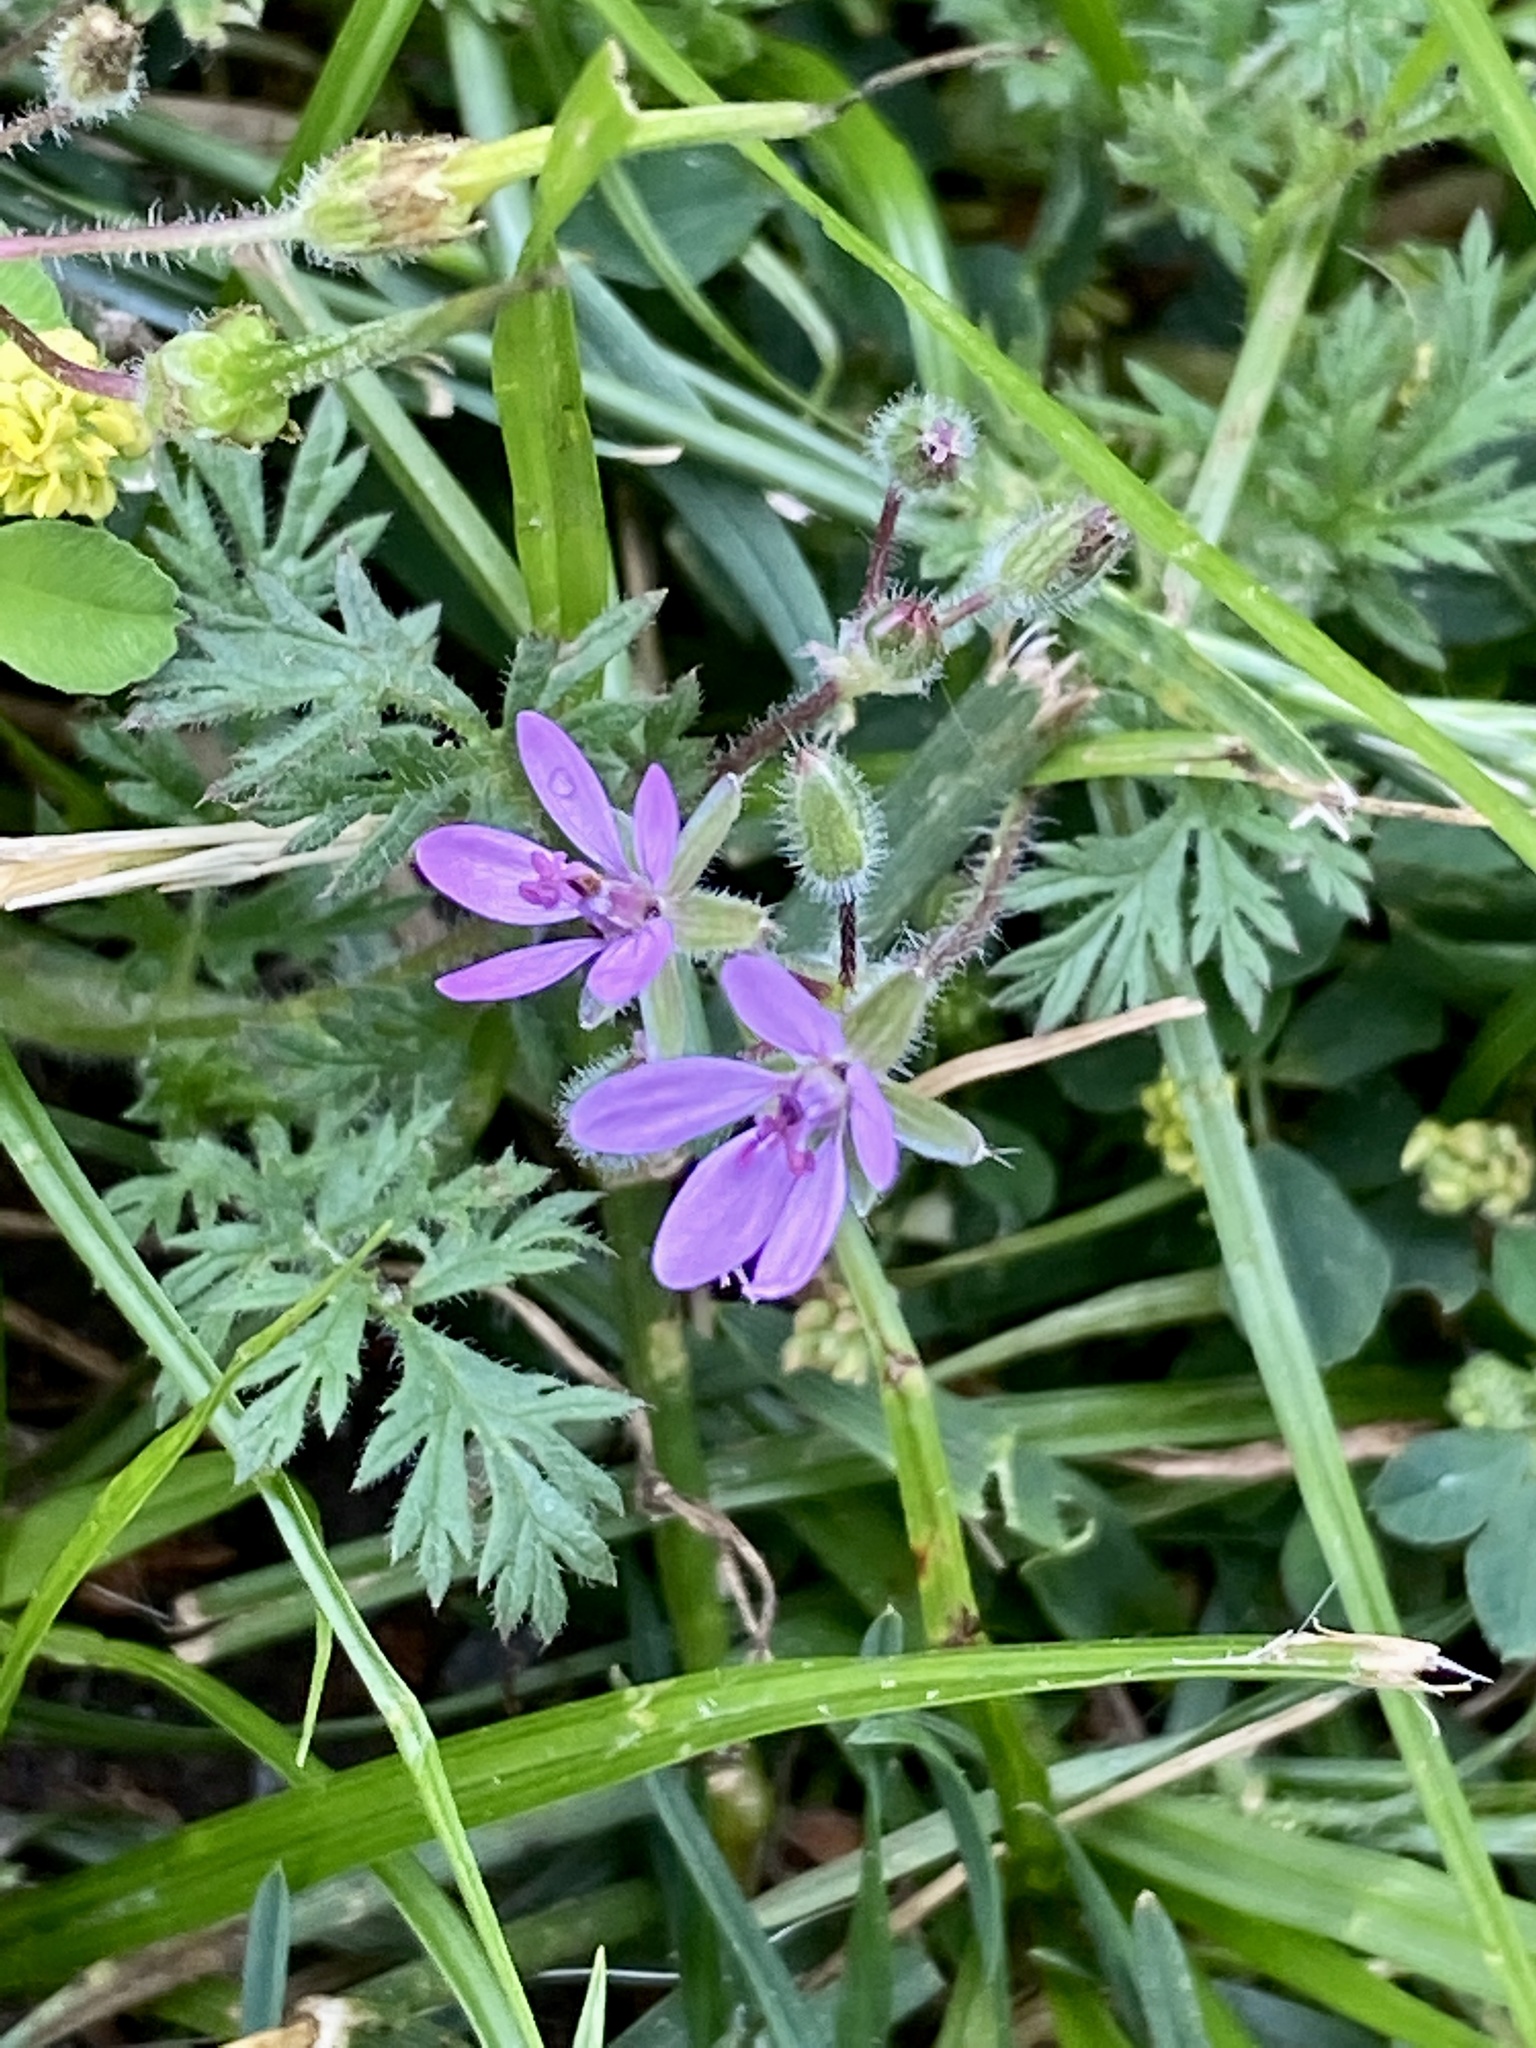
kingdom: Plantae
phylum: Tracheophyta
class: Magnoliopsida
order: Geraniales
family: Geraniaceae
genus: Erodium
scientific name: Erodium cicutarium
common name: Common stork's-bill
